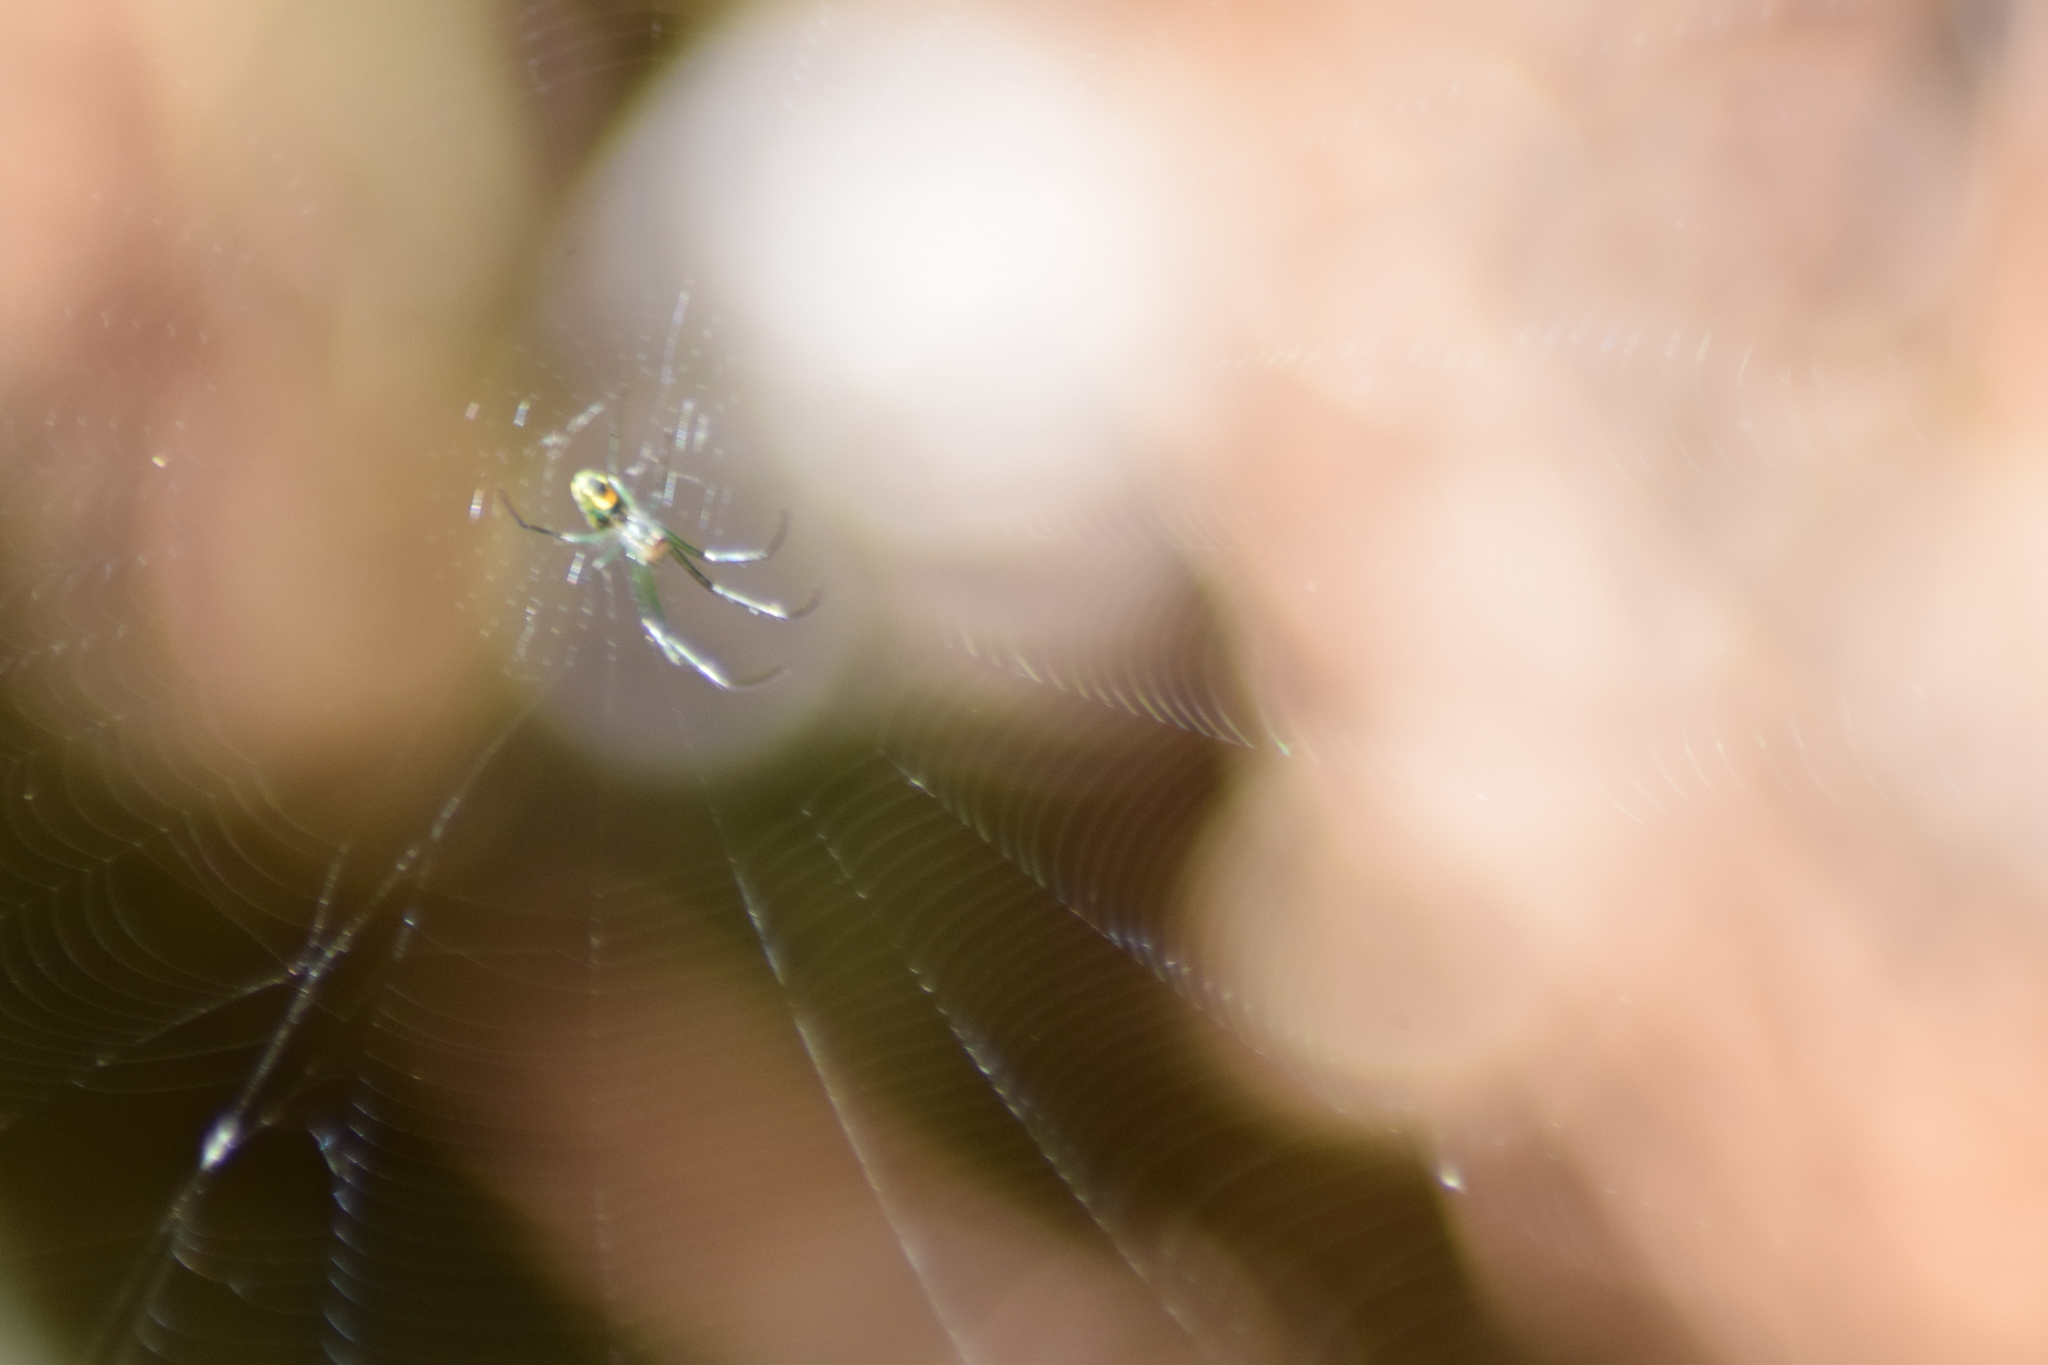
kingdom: Animalia
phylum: Arthropoda
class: Arachnida
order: Araneae
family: Tetragnathidae
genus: Leucauge
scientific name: Leucauge
